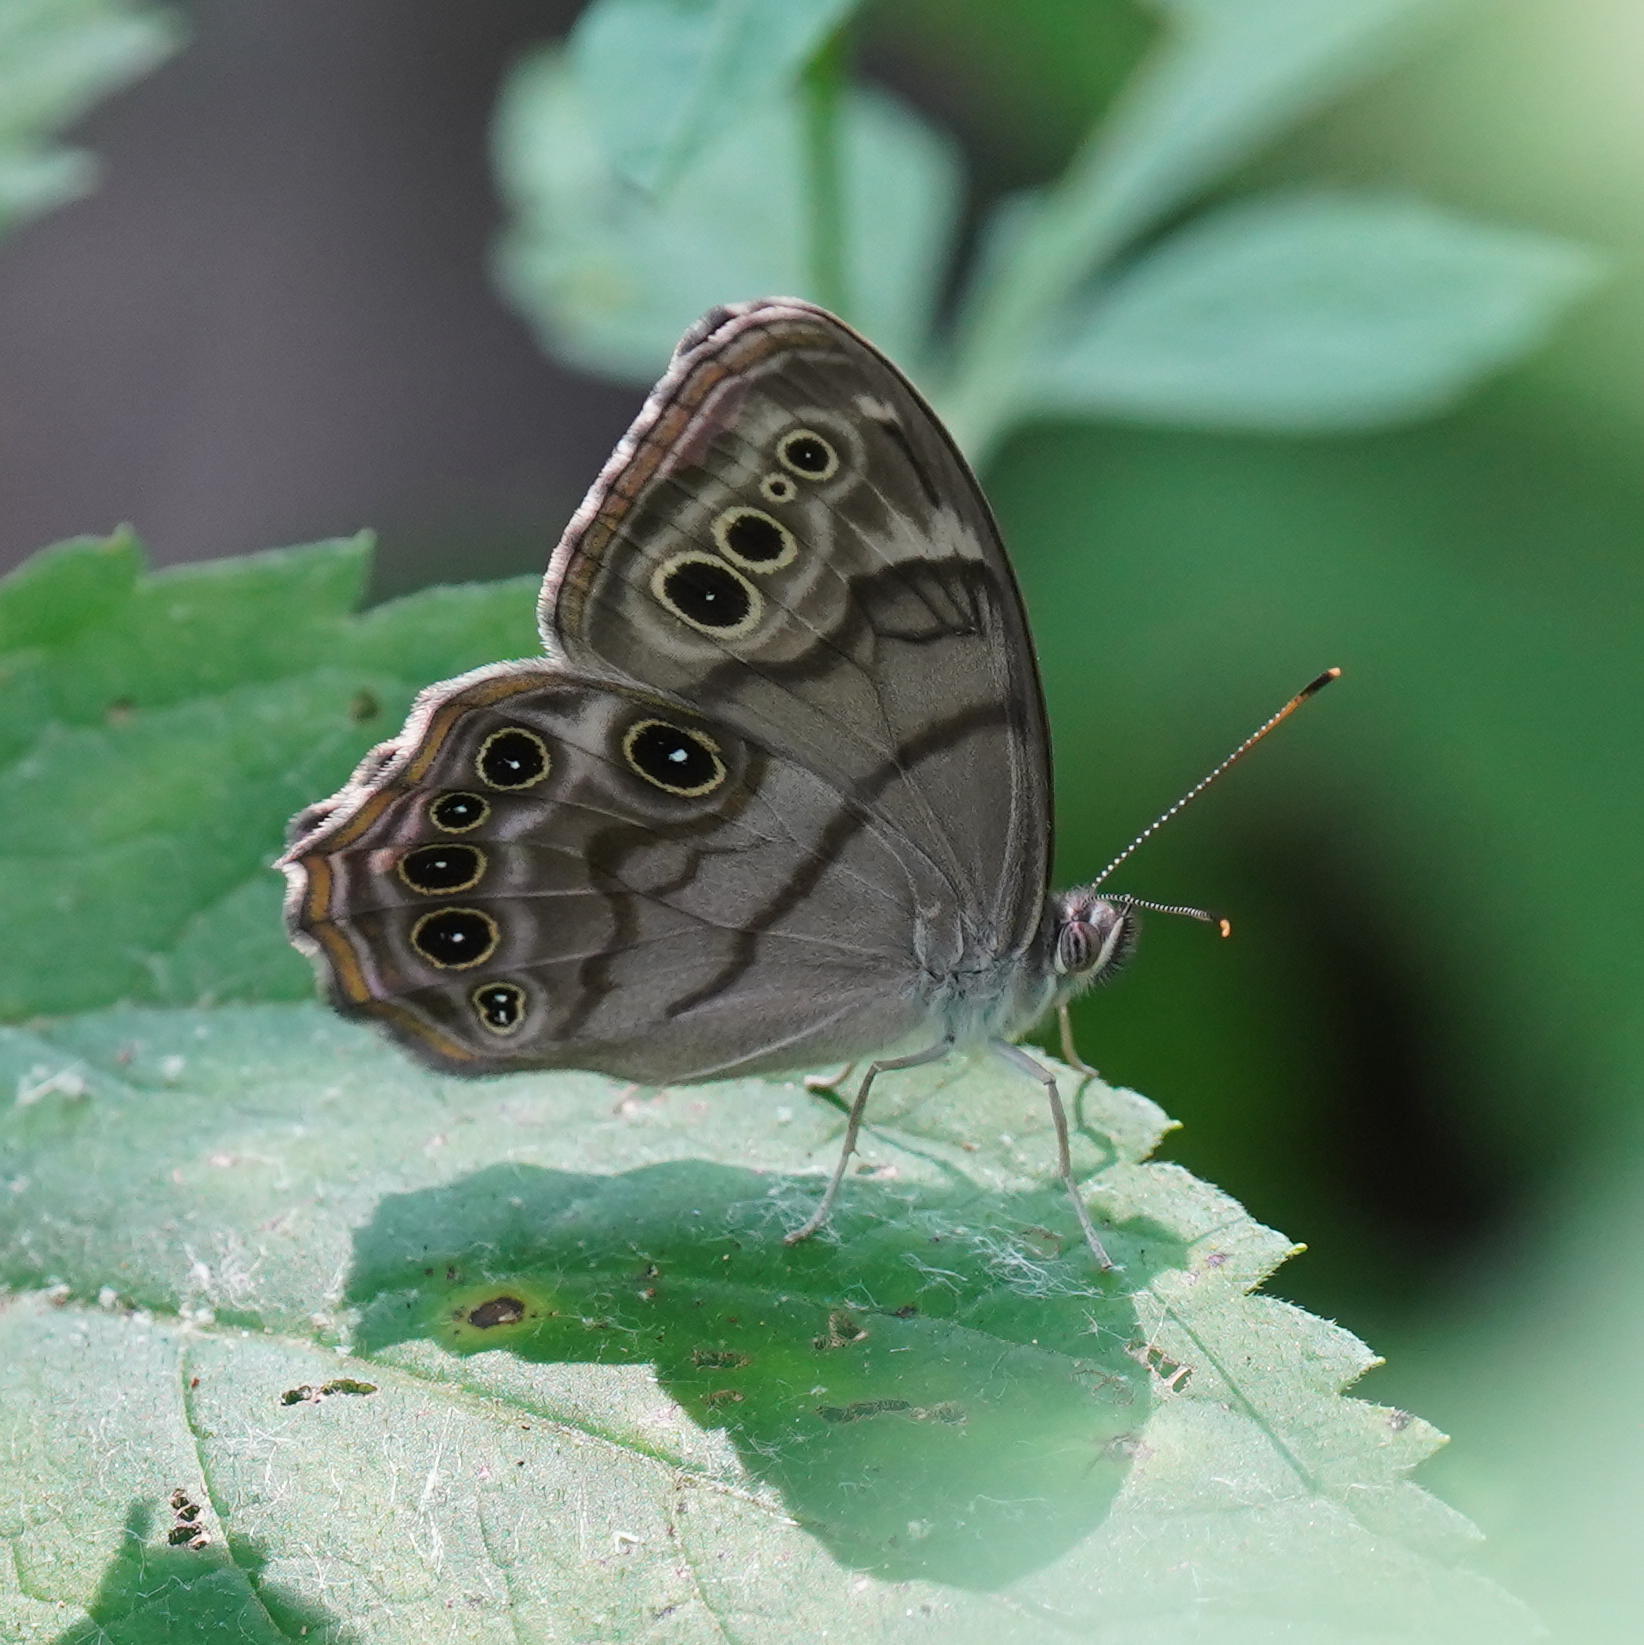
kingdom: Animalia
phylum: Arthropoda
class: Insecta
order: Lepidoptera
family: Nymphalidae
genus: Lethe
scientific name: Lethe anthedon
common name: Northern pearly-eye
